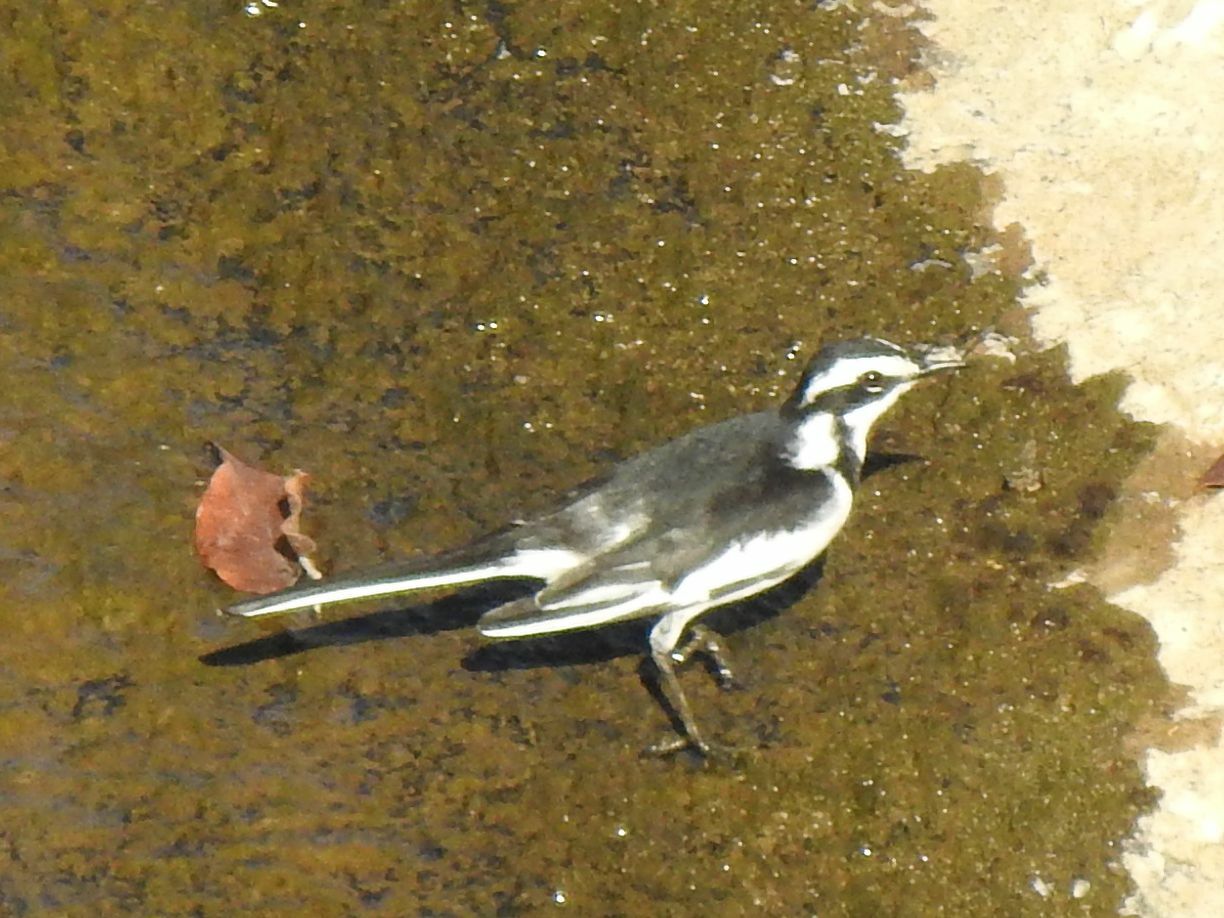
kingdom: Animalia
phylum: Chordata
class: Aves
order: Passeriformes
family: Motacillidae
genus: Motacilla
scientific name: Motacilla aguimp
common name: African pied wagtail
